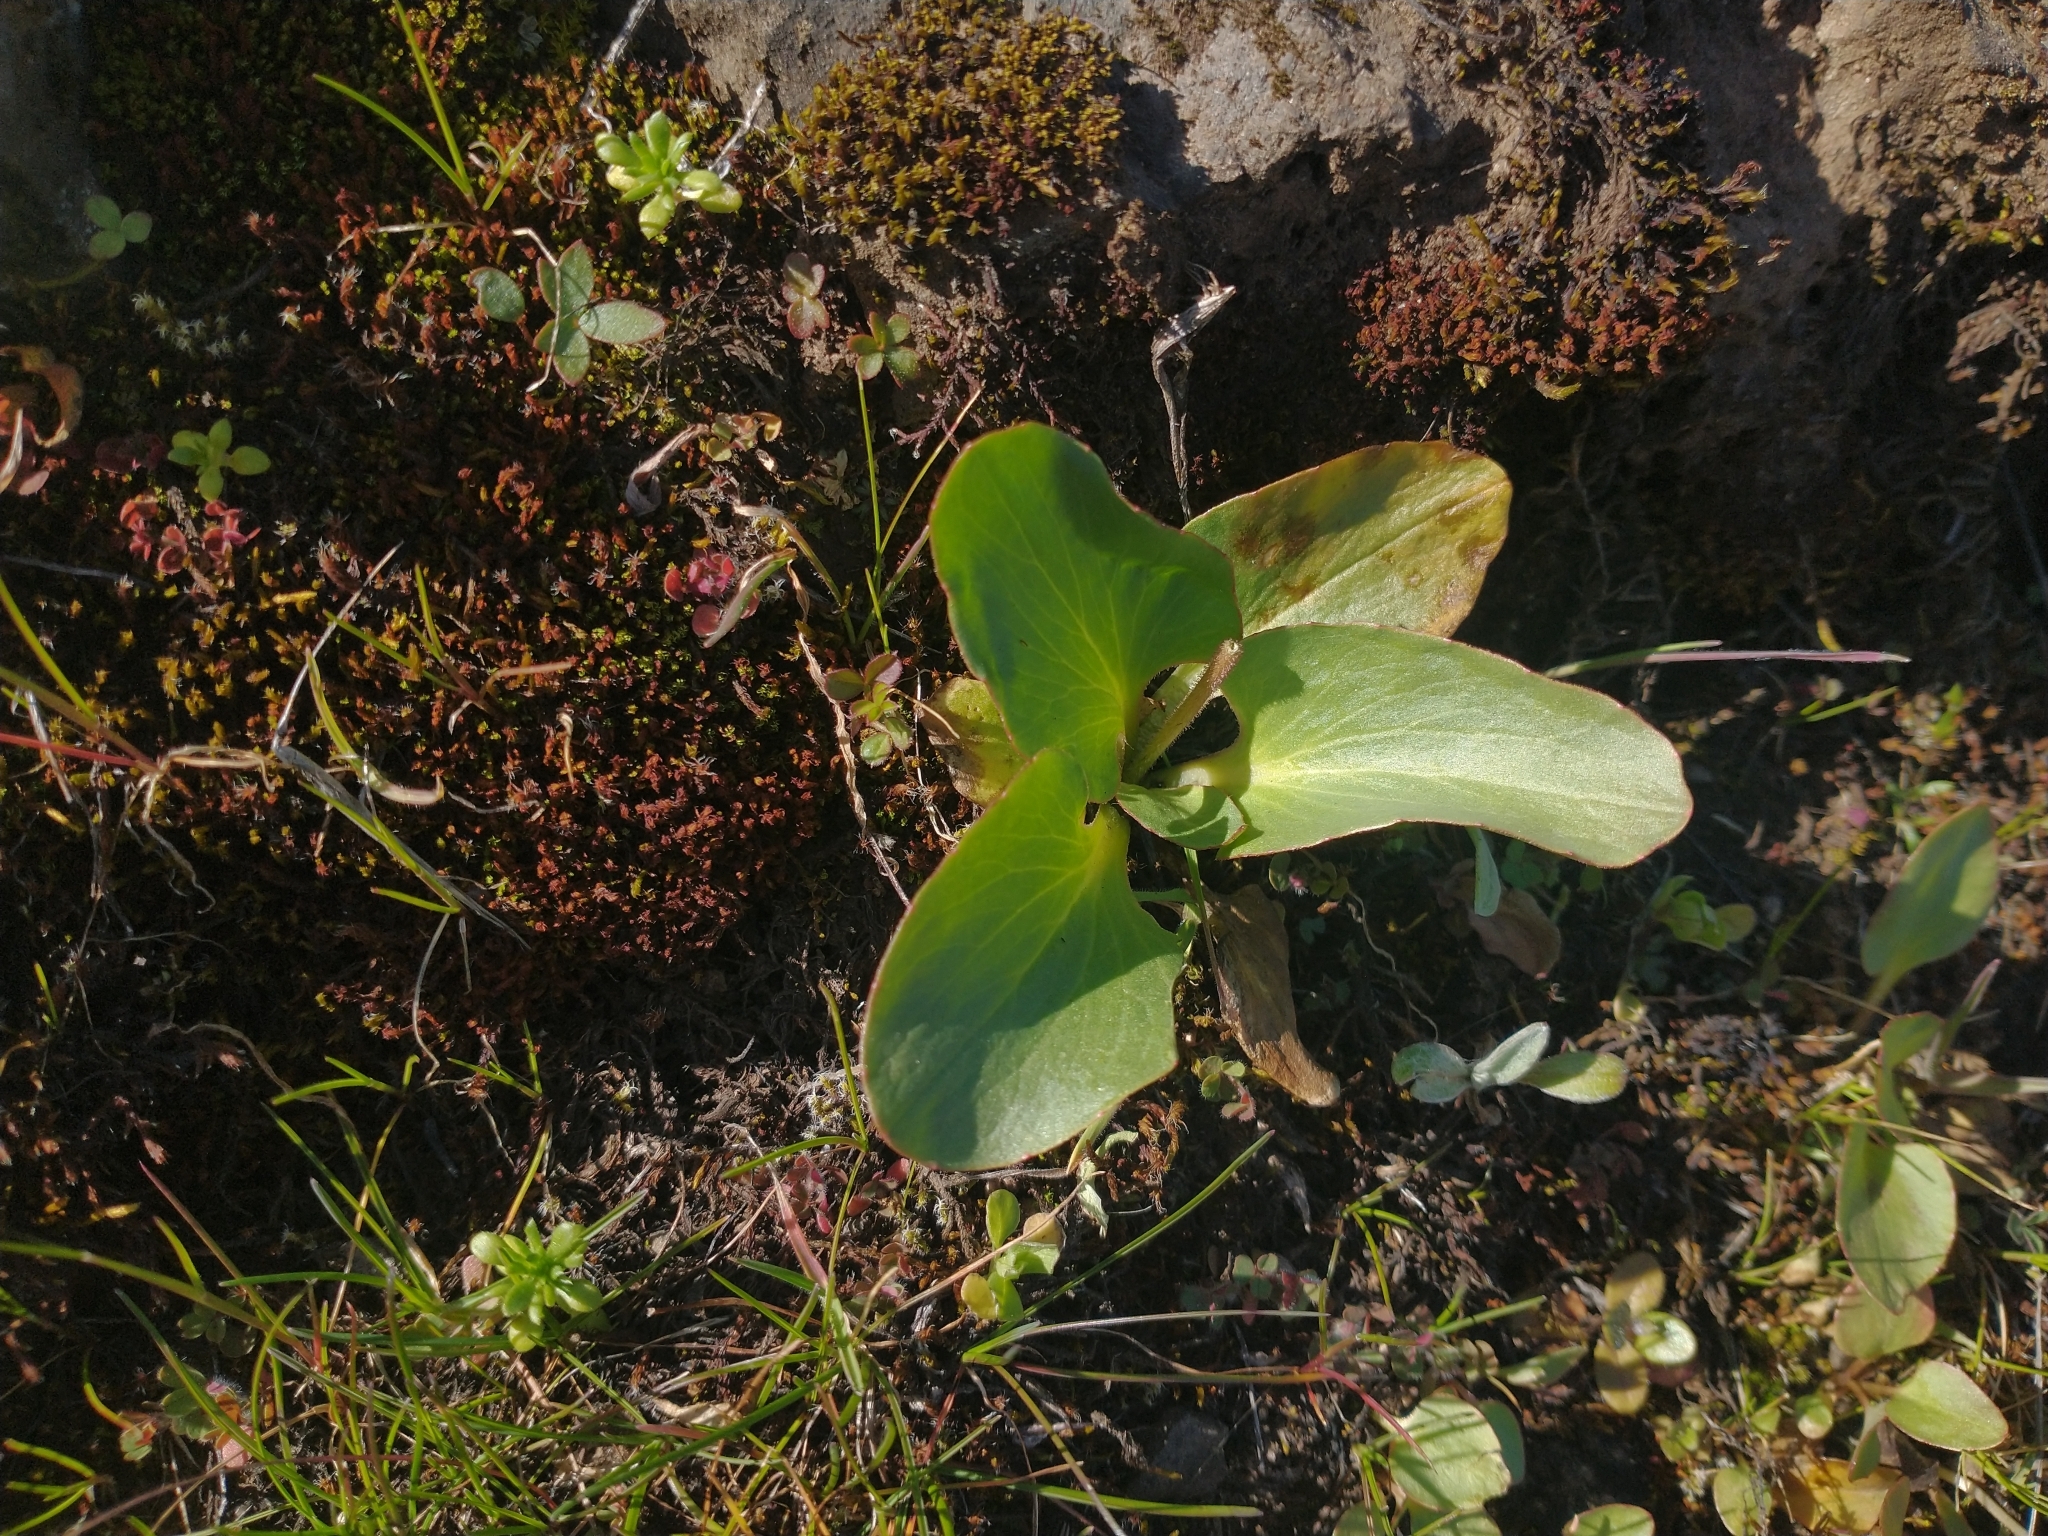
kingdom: Plantae
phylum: Tracheophyta
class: Magnoliopsida
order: Saxifragales
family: Saxifragaceae
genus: Micranthes
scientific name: Micranthes fragosa
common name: Peak saxifrage
